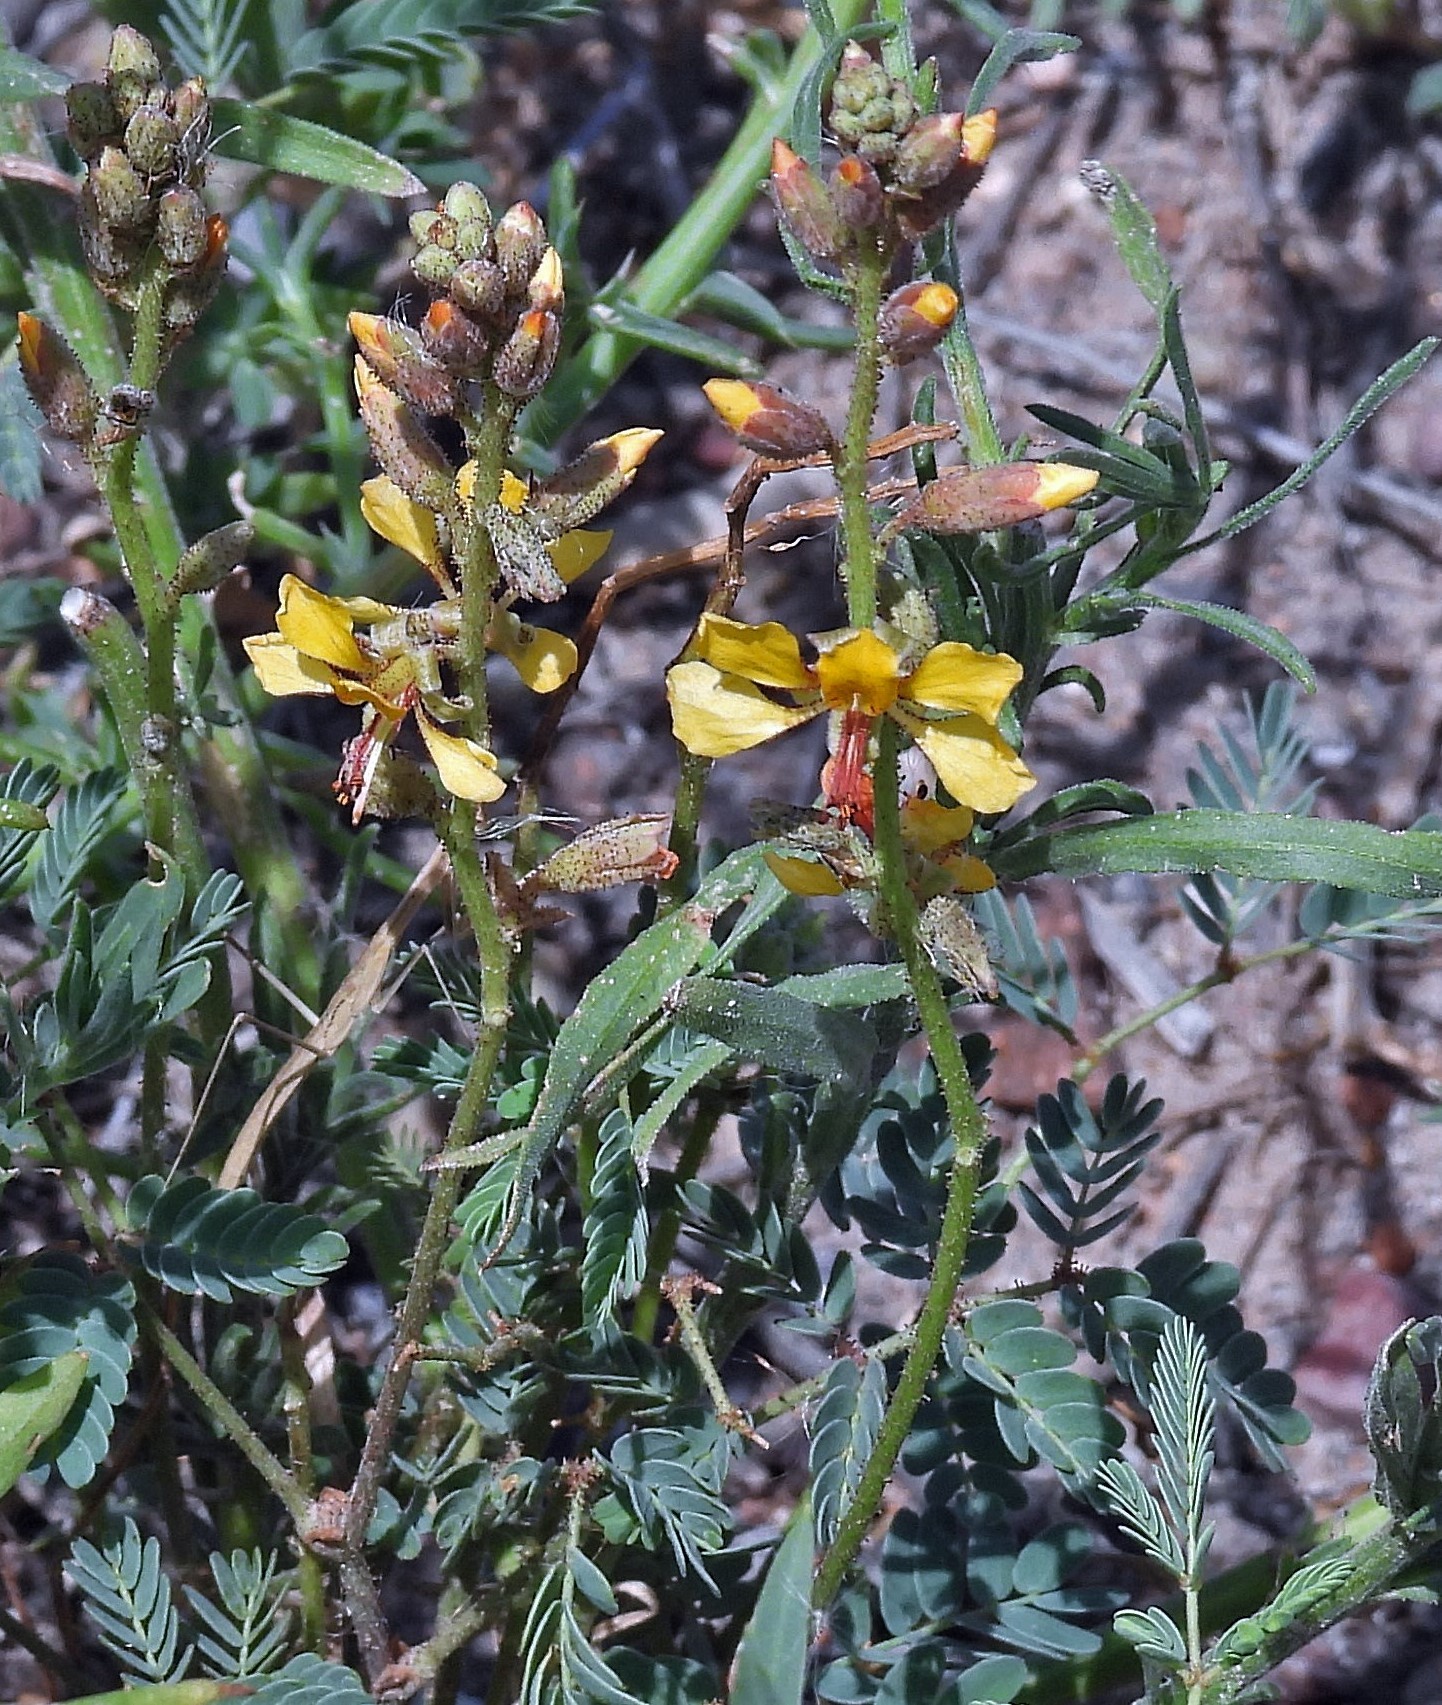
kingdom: Plantae
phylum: Tracheophyta
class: Magnoliopsida
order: Fabales
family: Fabaceae
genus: Hoffmannseggia
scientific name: Hoffmannseggia glauca
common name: Pignut
